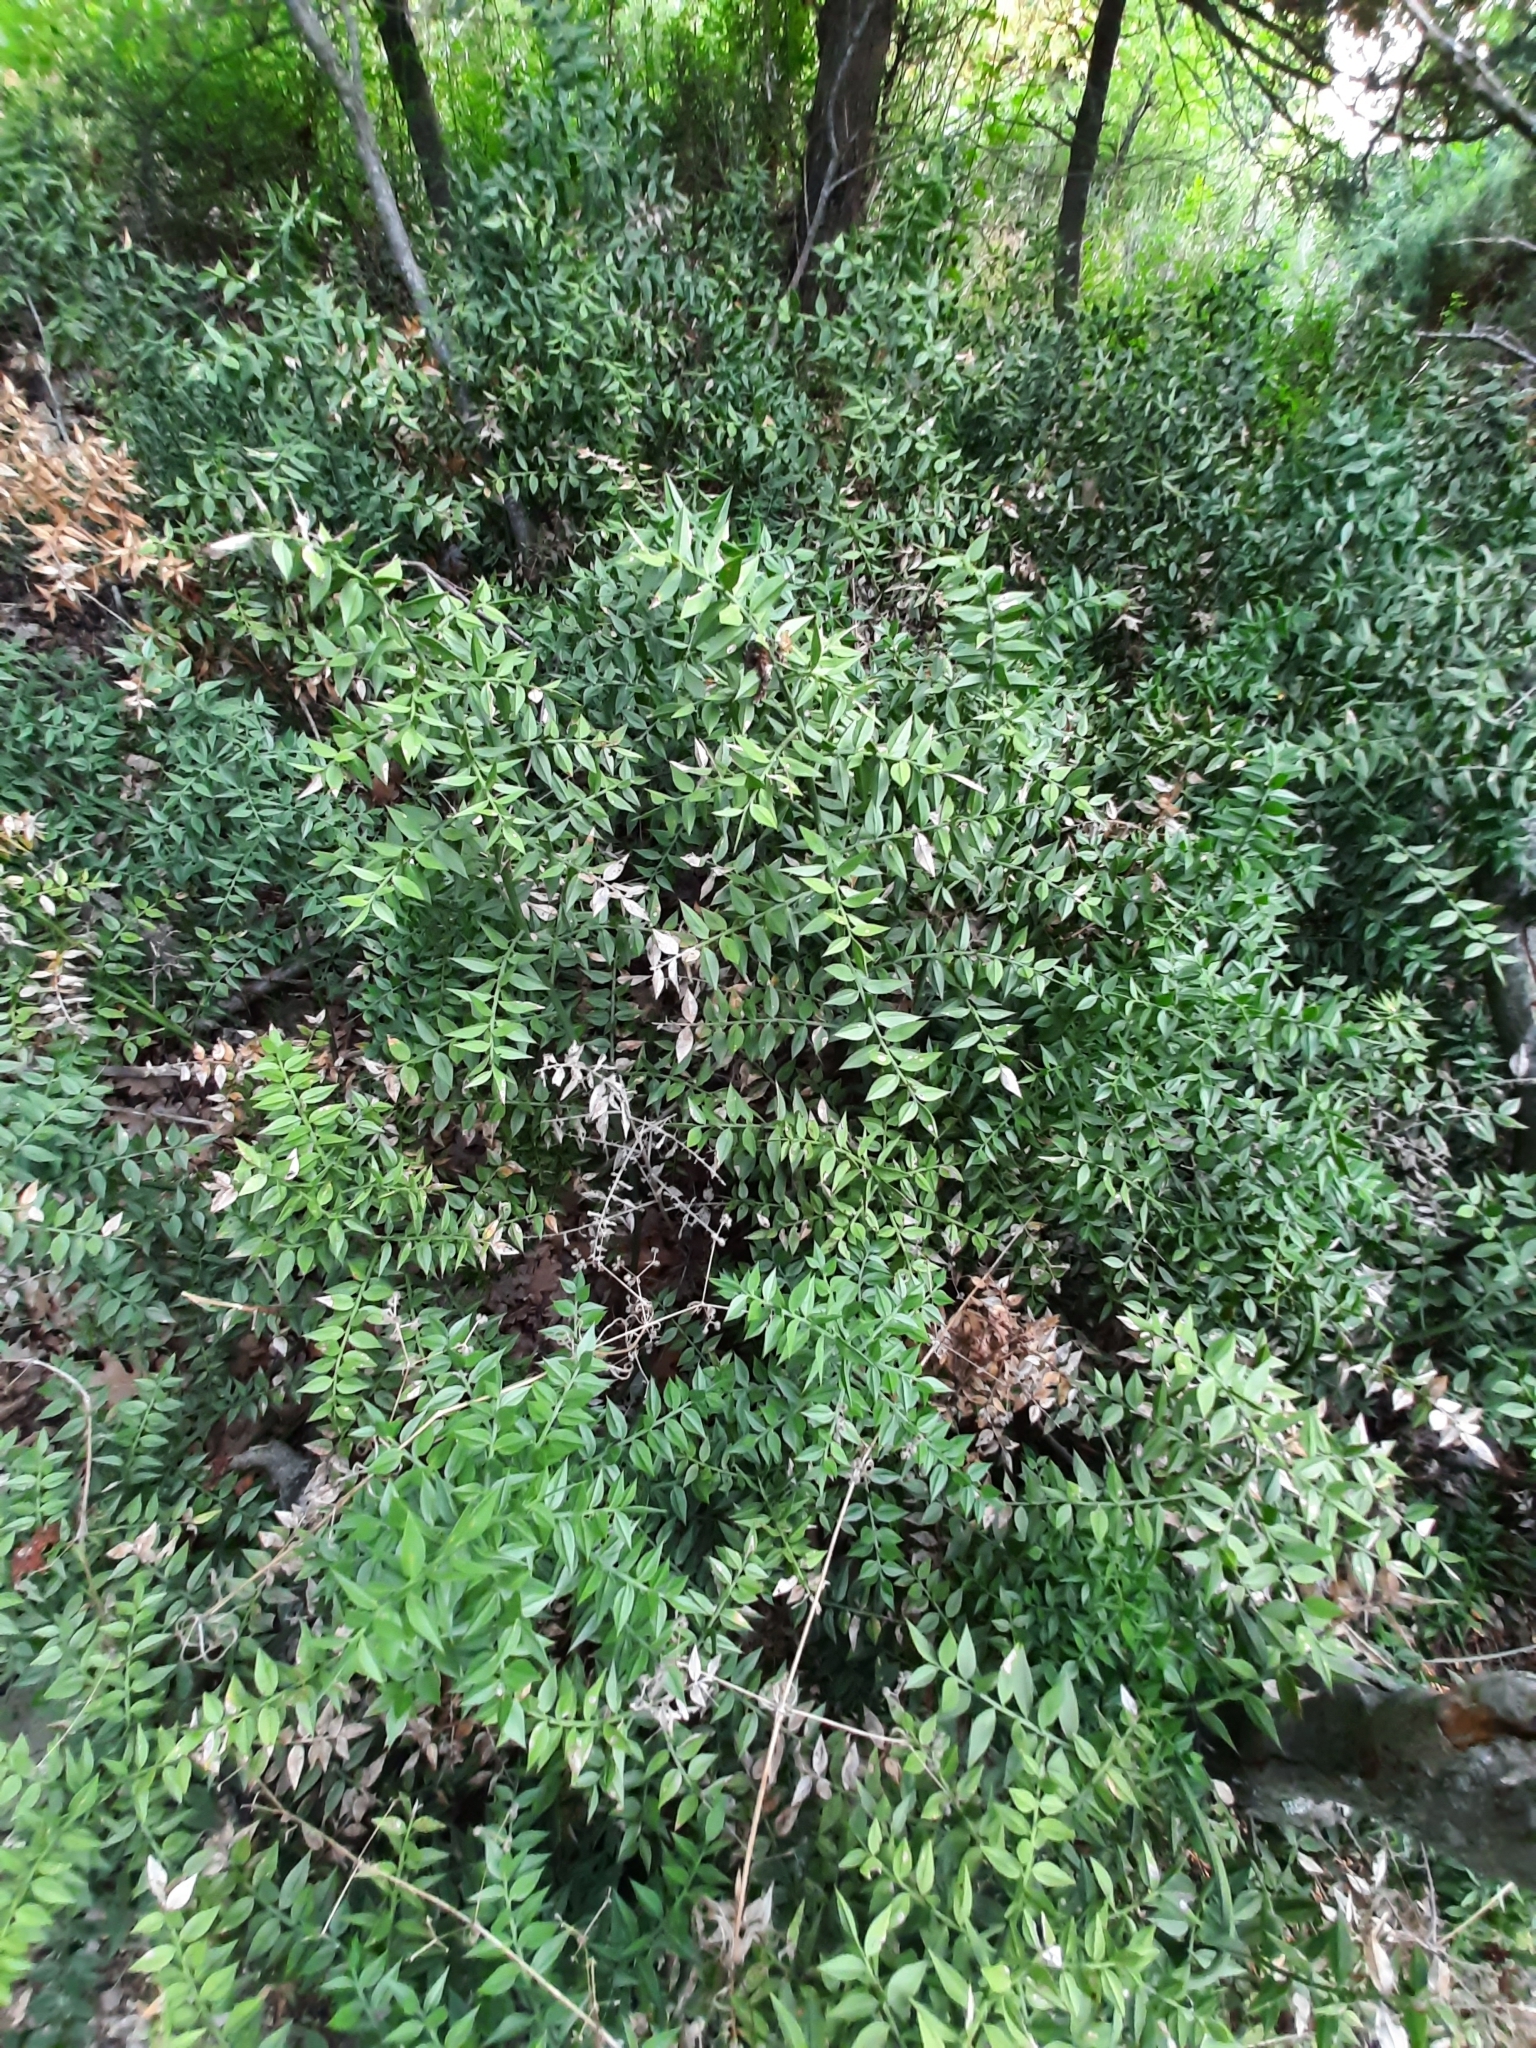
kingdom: Plantae
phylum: Tracheophyta
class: Liliopsida
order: Asparagales
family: Asparagaceae
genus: Ruscus
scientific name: Ruscus aculeatus
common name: Butcher's-broom
